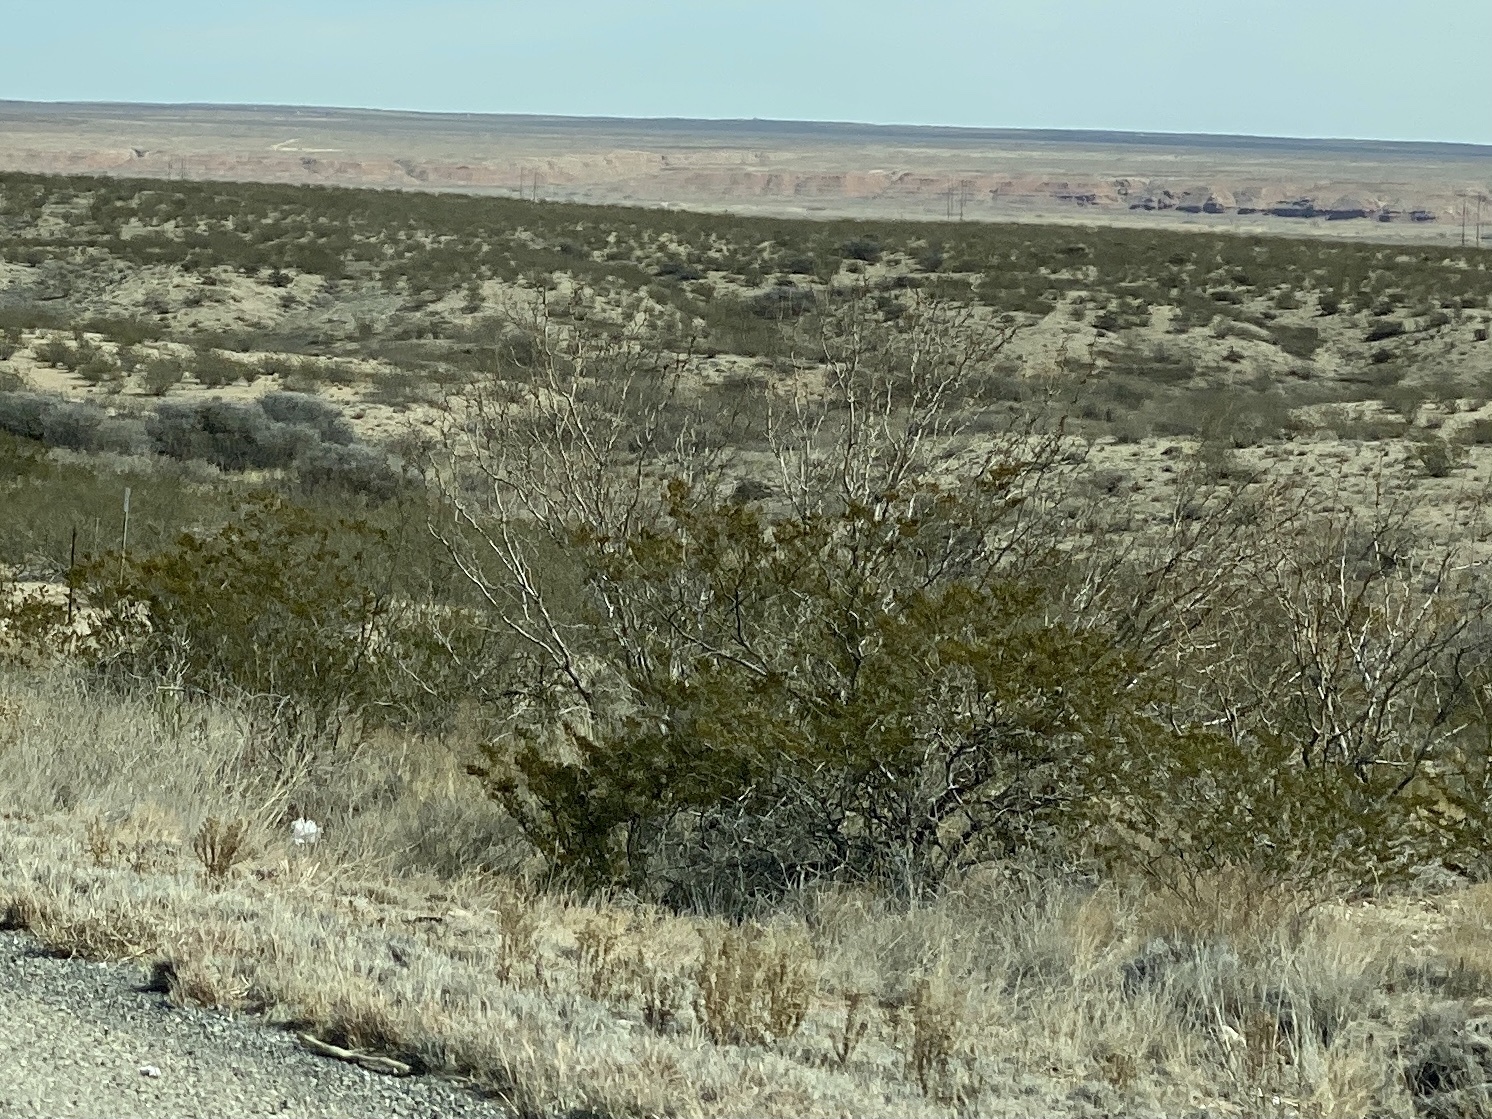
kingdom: Plantae
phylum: Tracheophyta
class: Magnoliopsida
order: Zygophyllales
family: Zygophyllaceae
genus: Larrea
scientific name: Larrea tridentata
